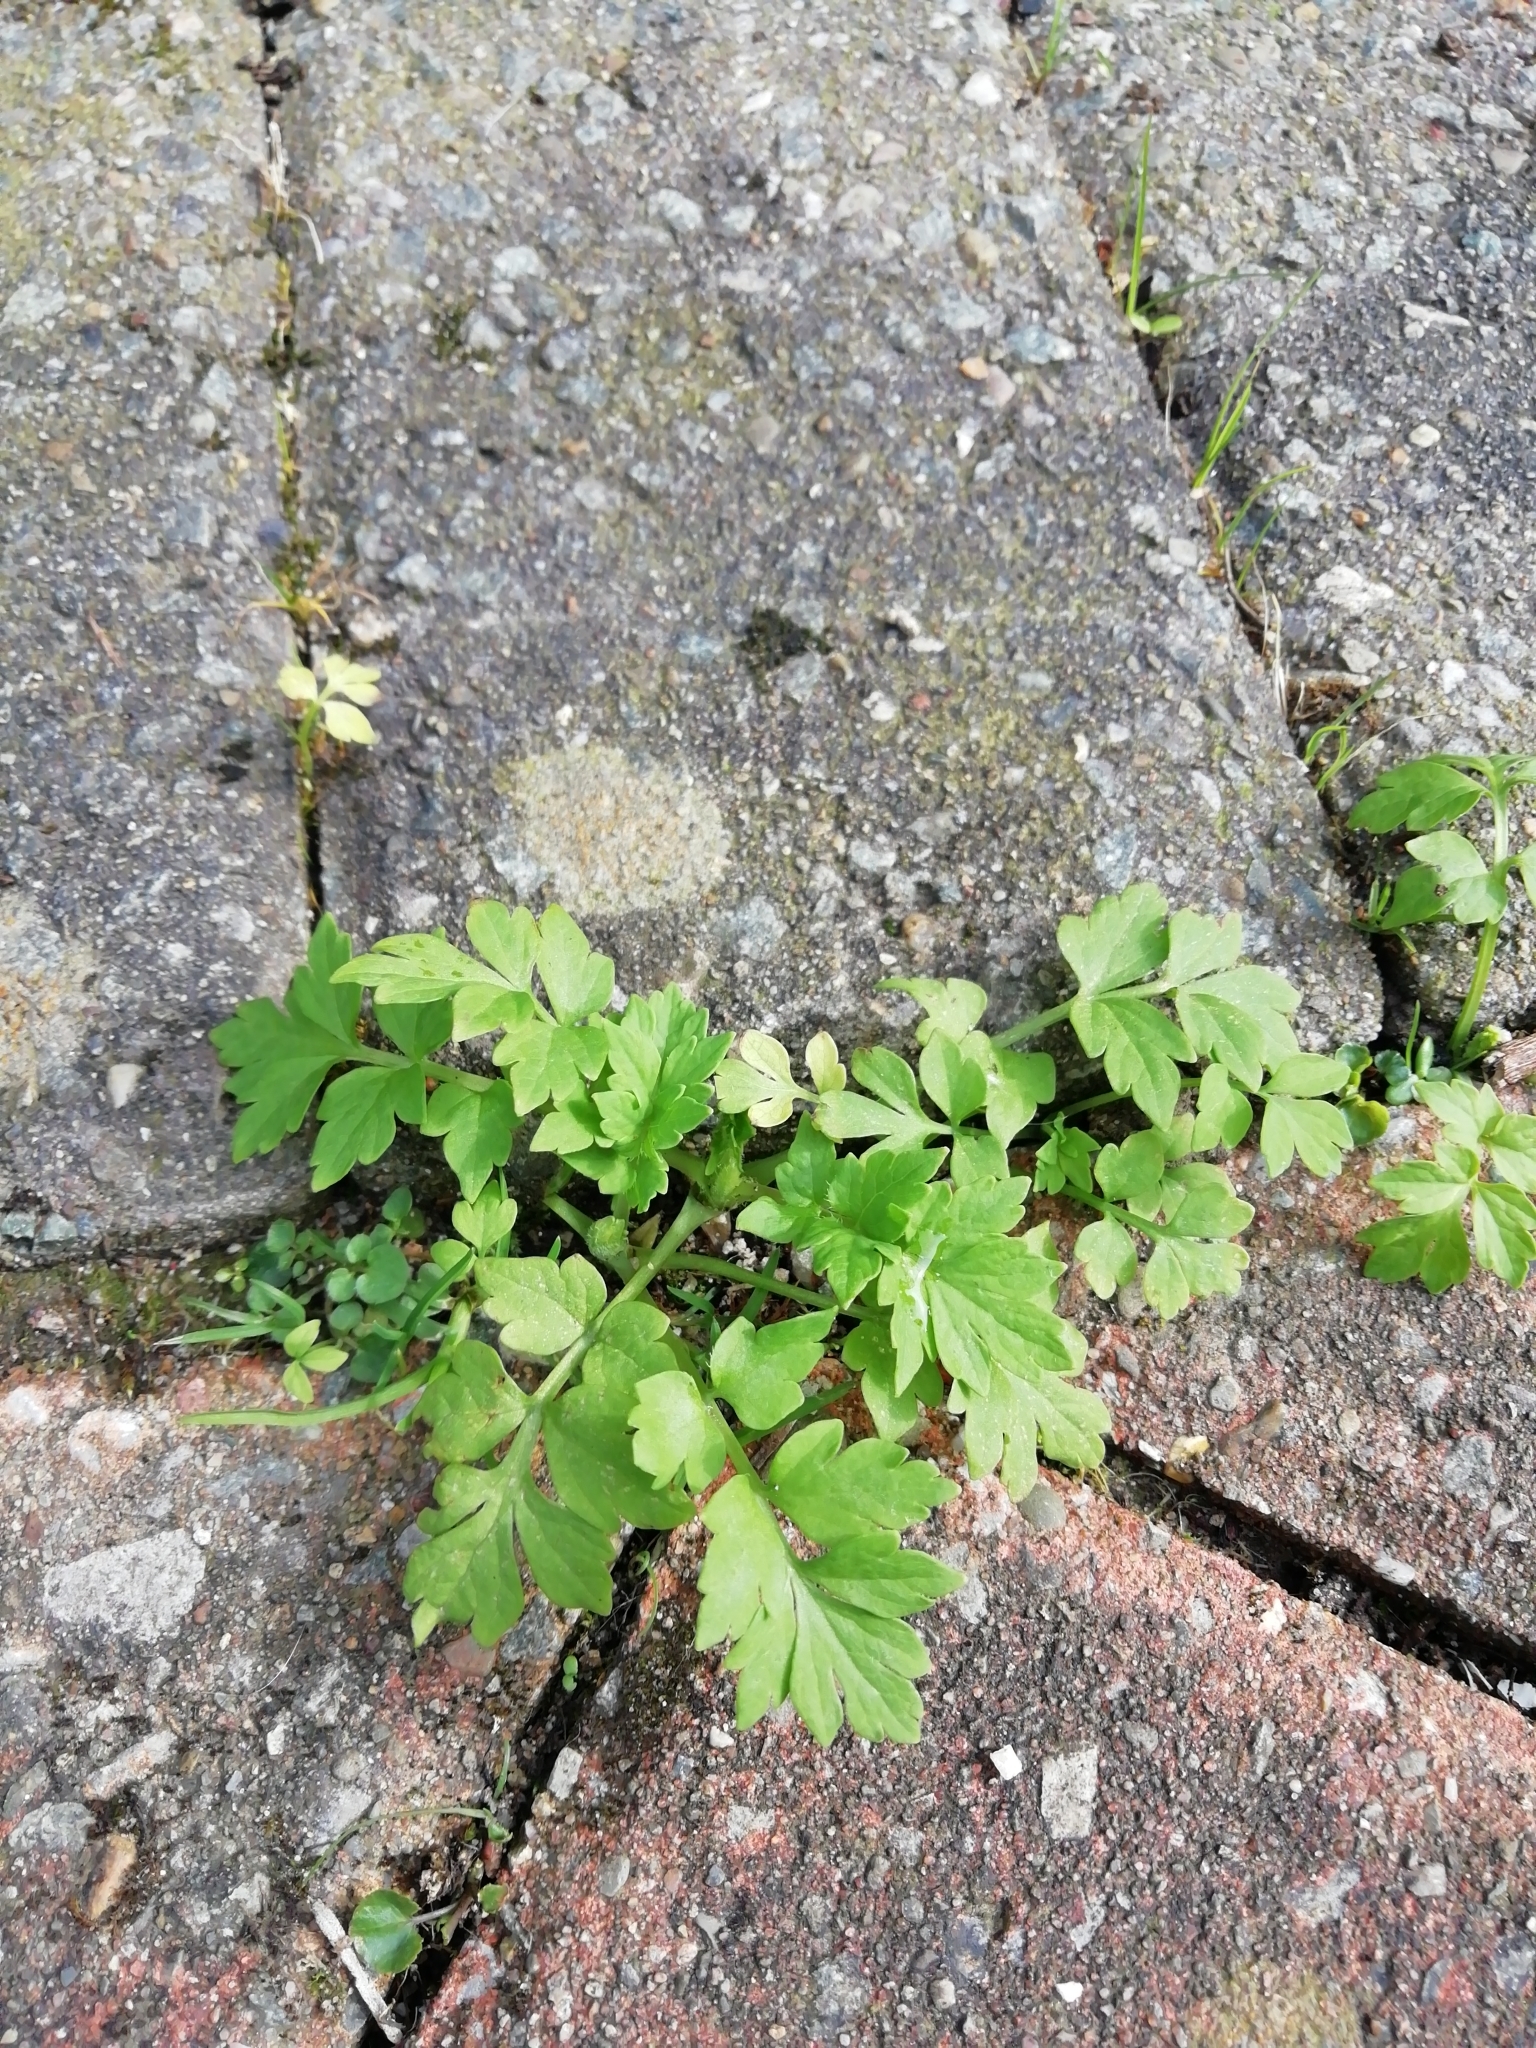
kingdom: Plantae
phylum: Tracheophyta
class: Magnoliopsida
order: Ranunculales
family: Papaveraceae
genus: Papaver
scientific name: Papaver cambricum
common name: Poppy
